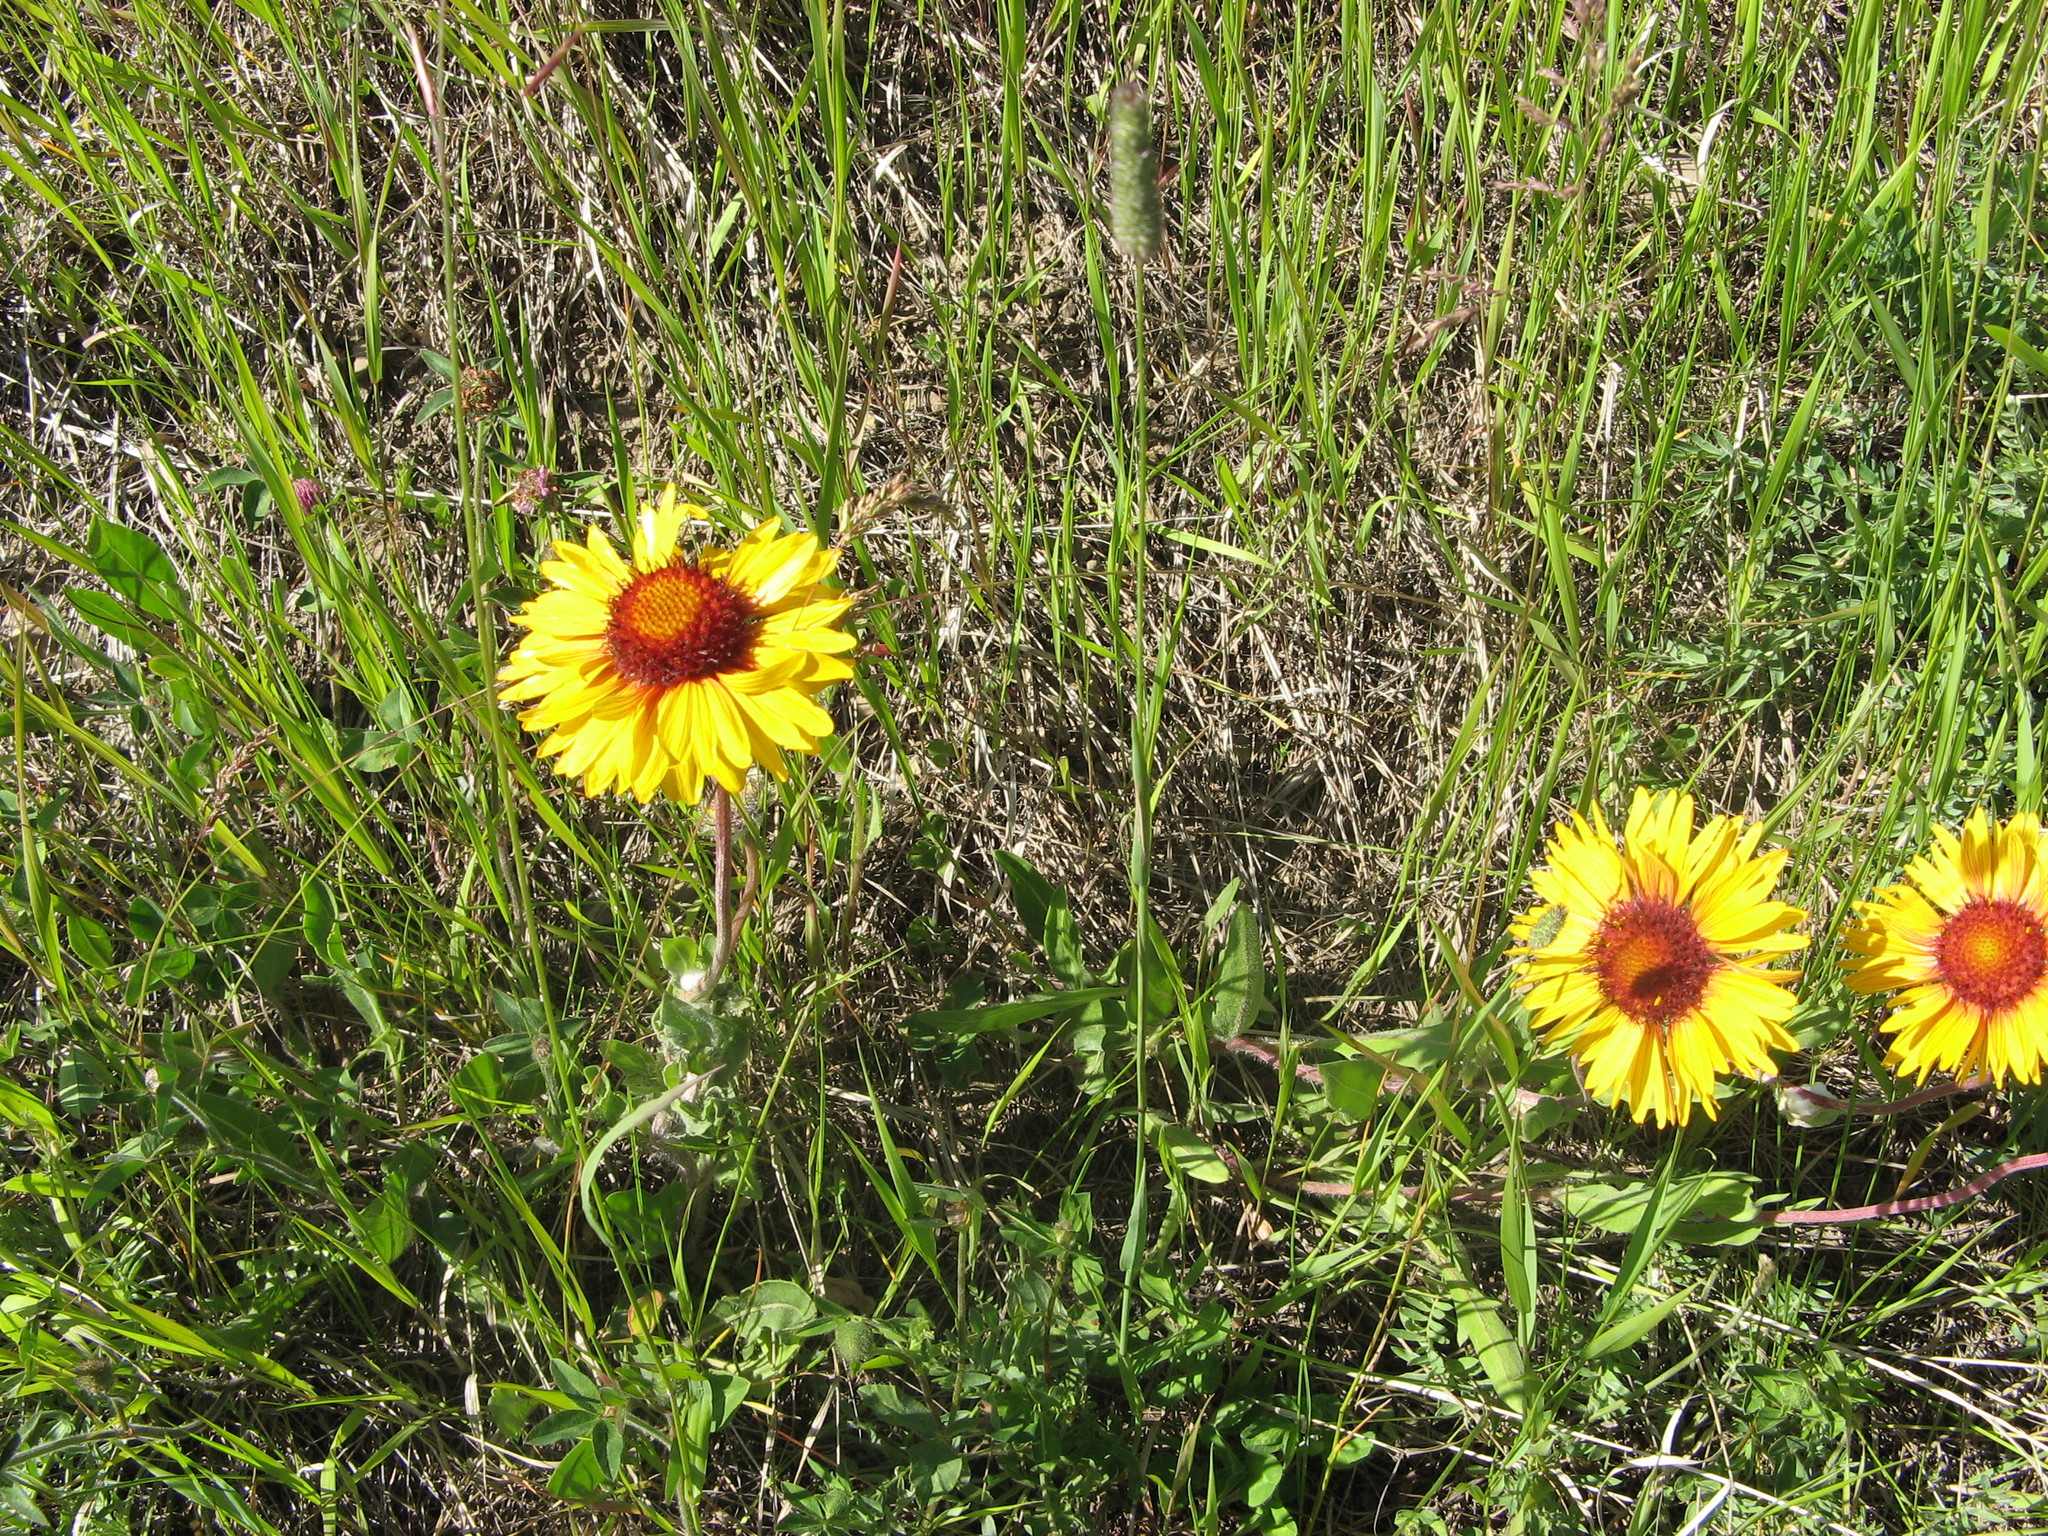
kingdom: Plantae
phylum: Tracheophyta
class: Magnoliopsida
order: Asterales
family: Asteraceae
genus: Gaillardia
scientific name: Gaillardia aristata
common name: Blanket-flower
